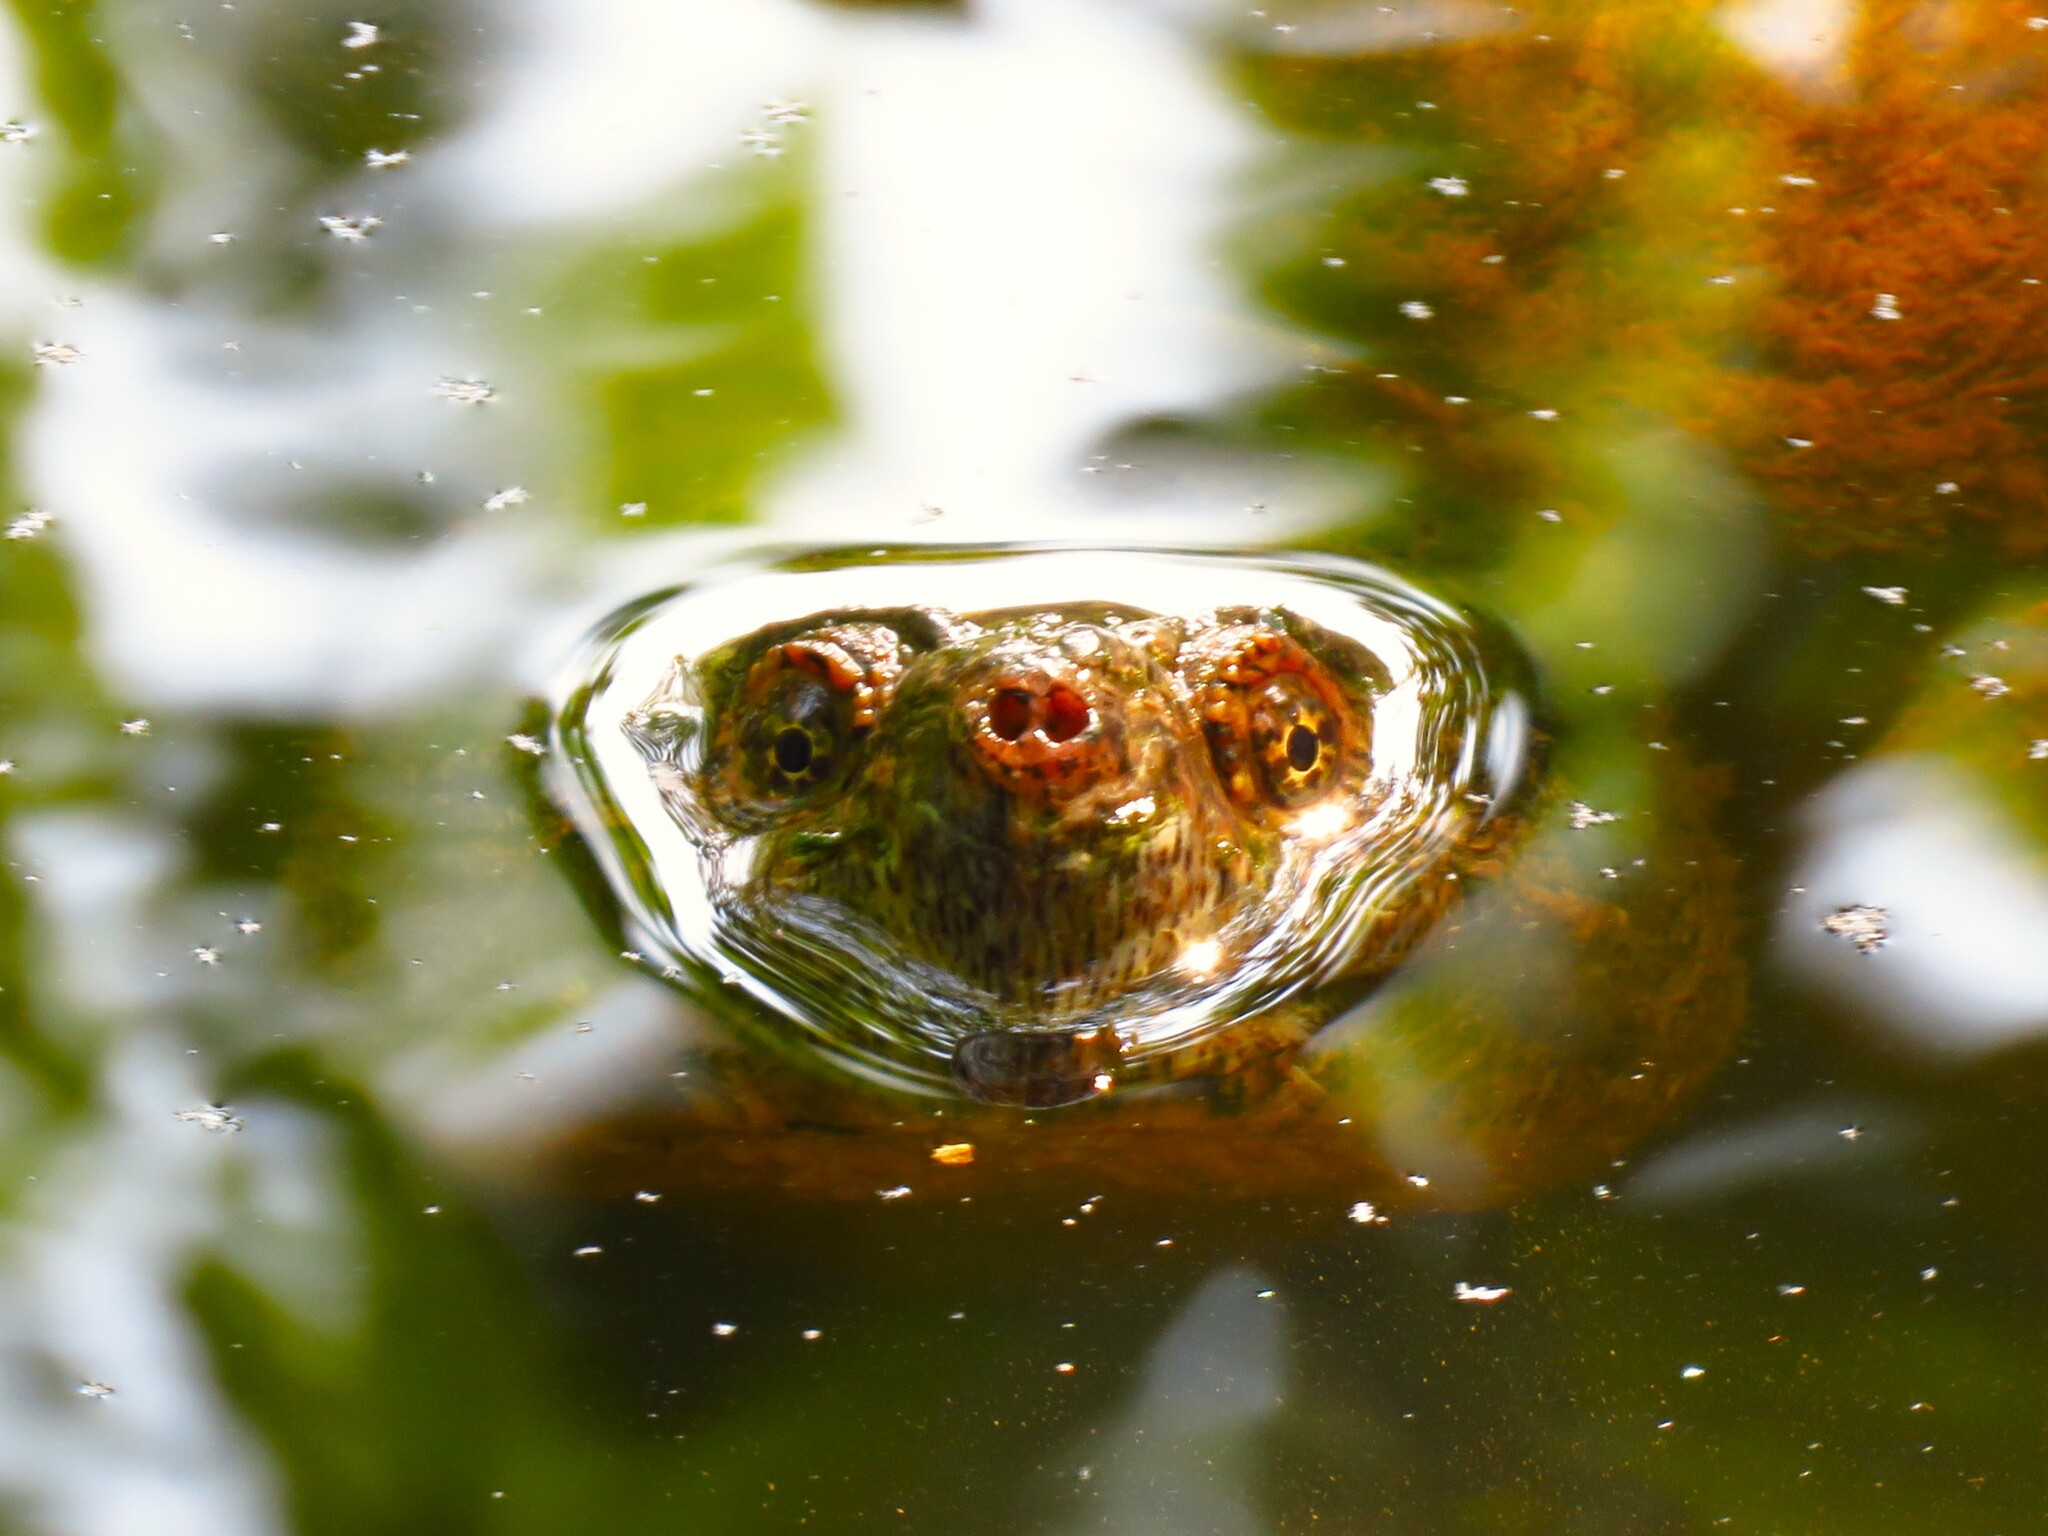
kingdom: Animalia
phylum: Chordata
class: Testudines
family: Chelydridae
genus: Chelydra
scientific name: Chelydra serpentina
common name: Common snapping turtle
